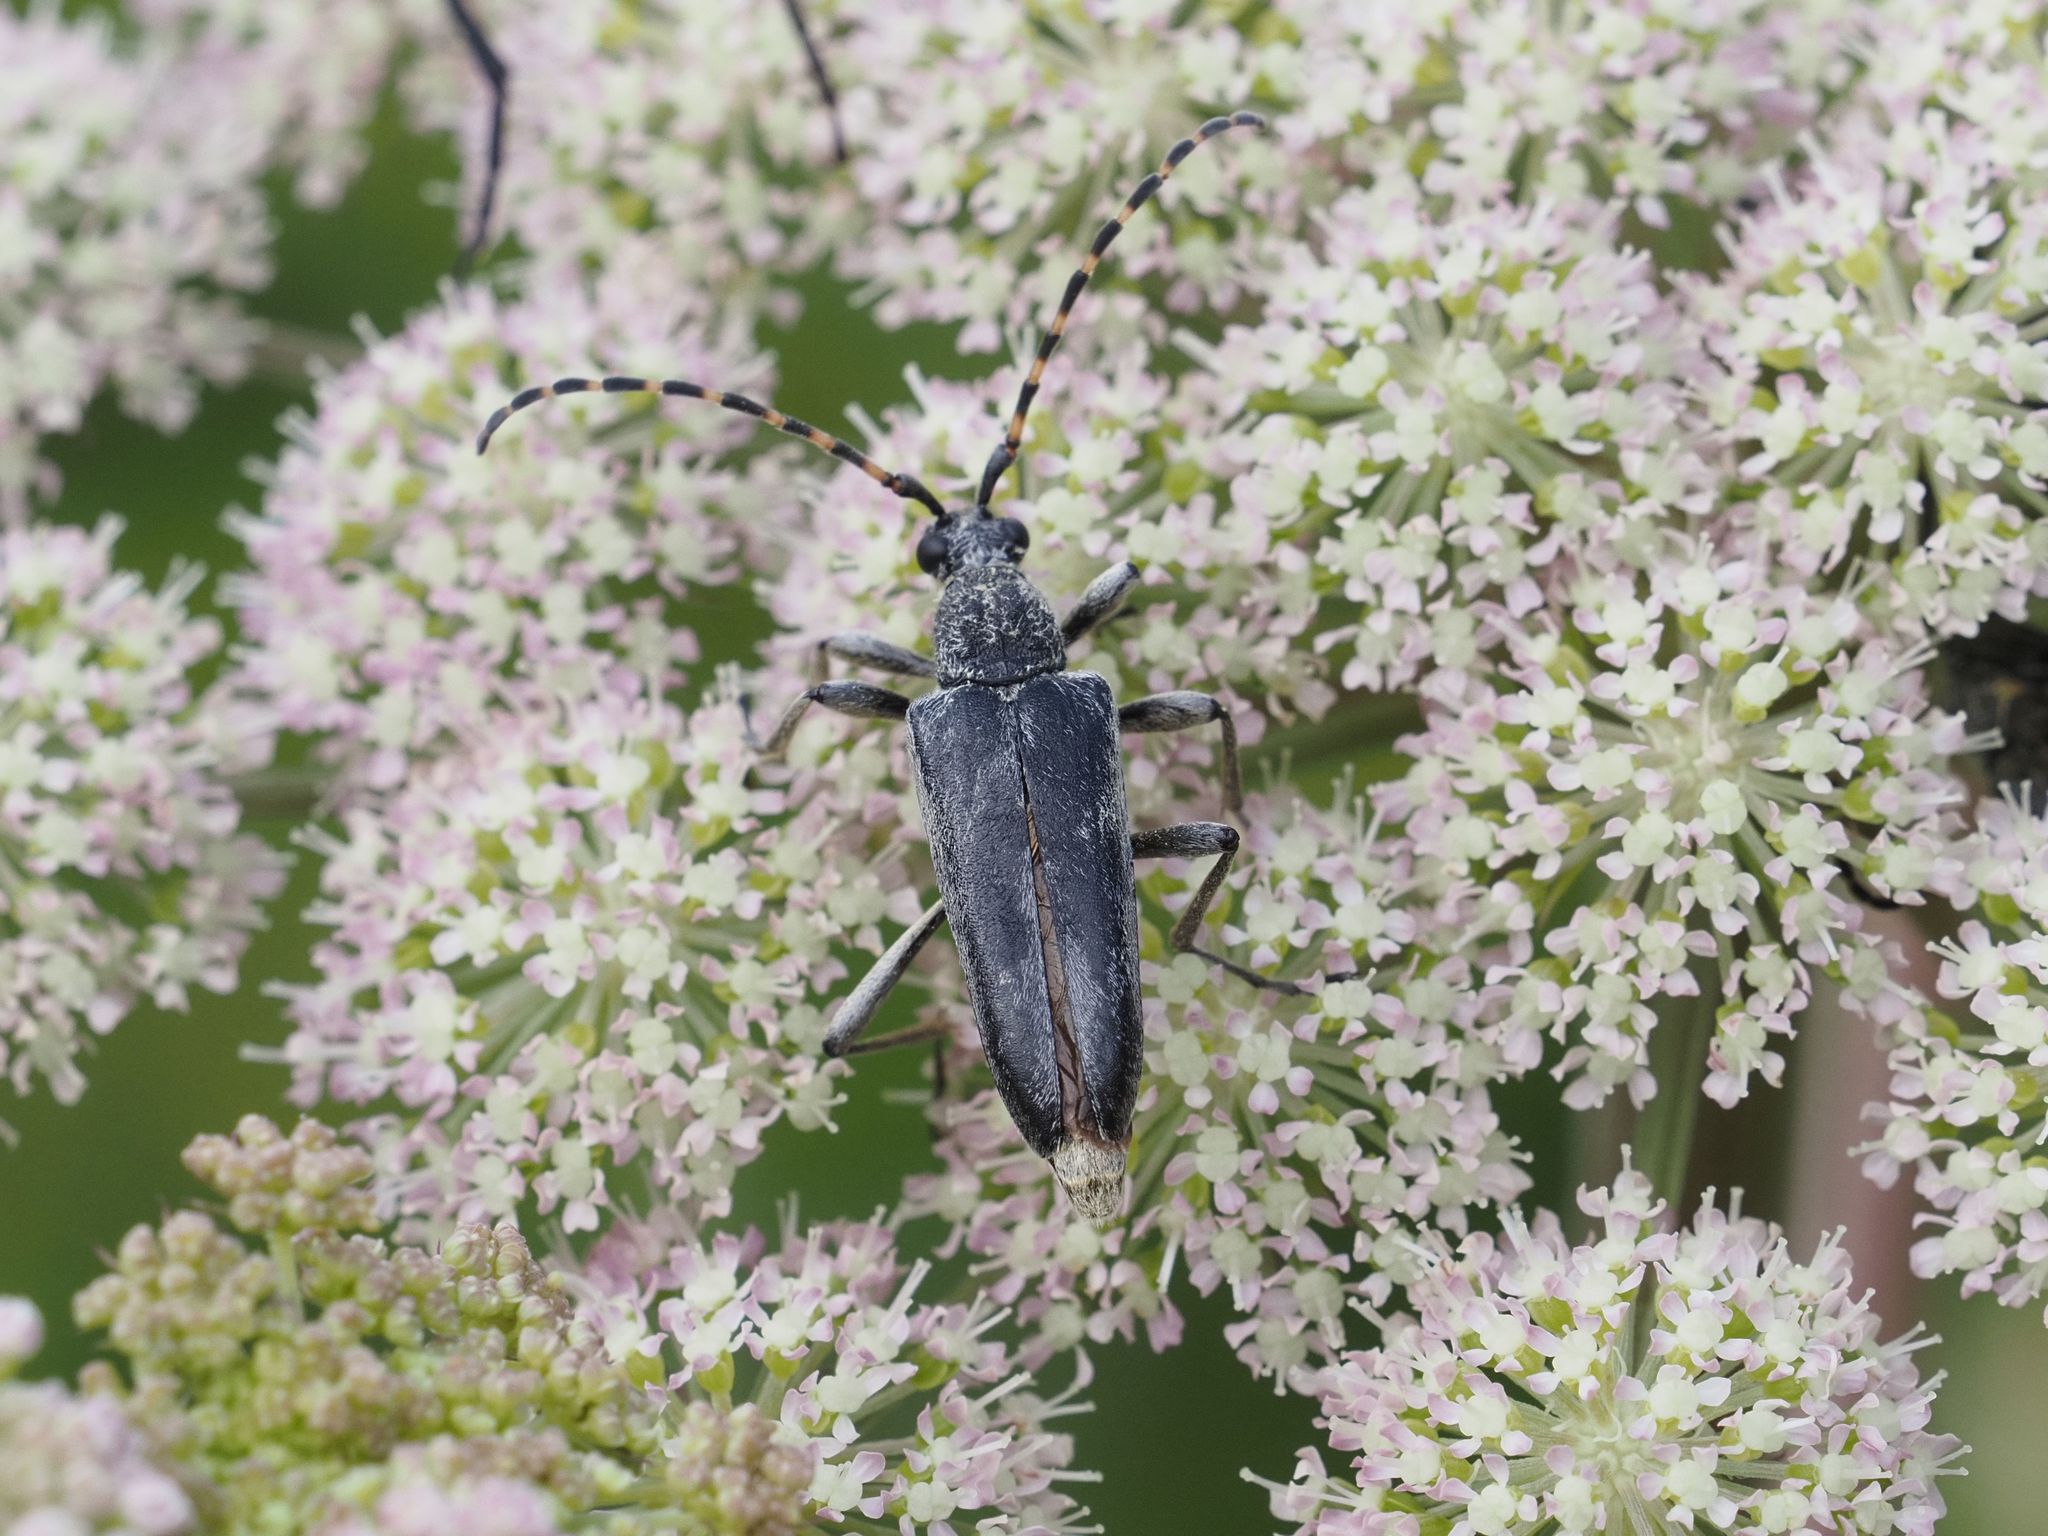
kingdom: Animalia
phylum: Arthropoda
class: Insecta
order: Coleoptera
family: Cerambycidae
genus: Lepturobosca
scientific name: Lepturobosca virens
